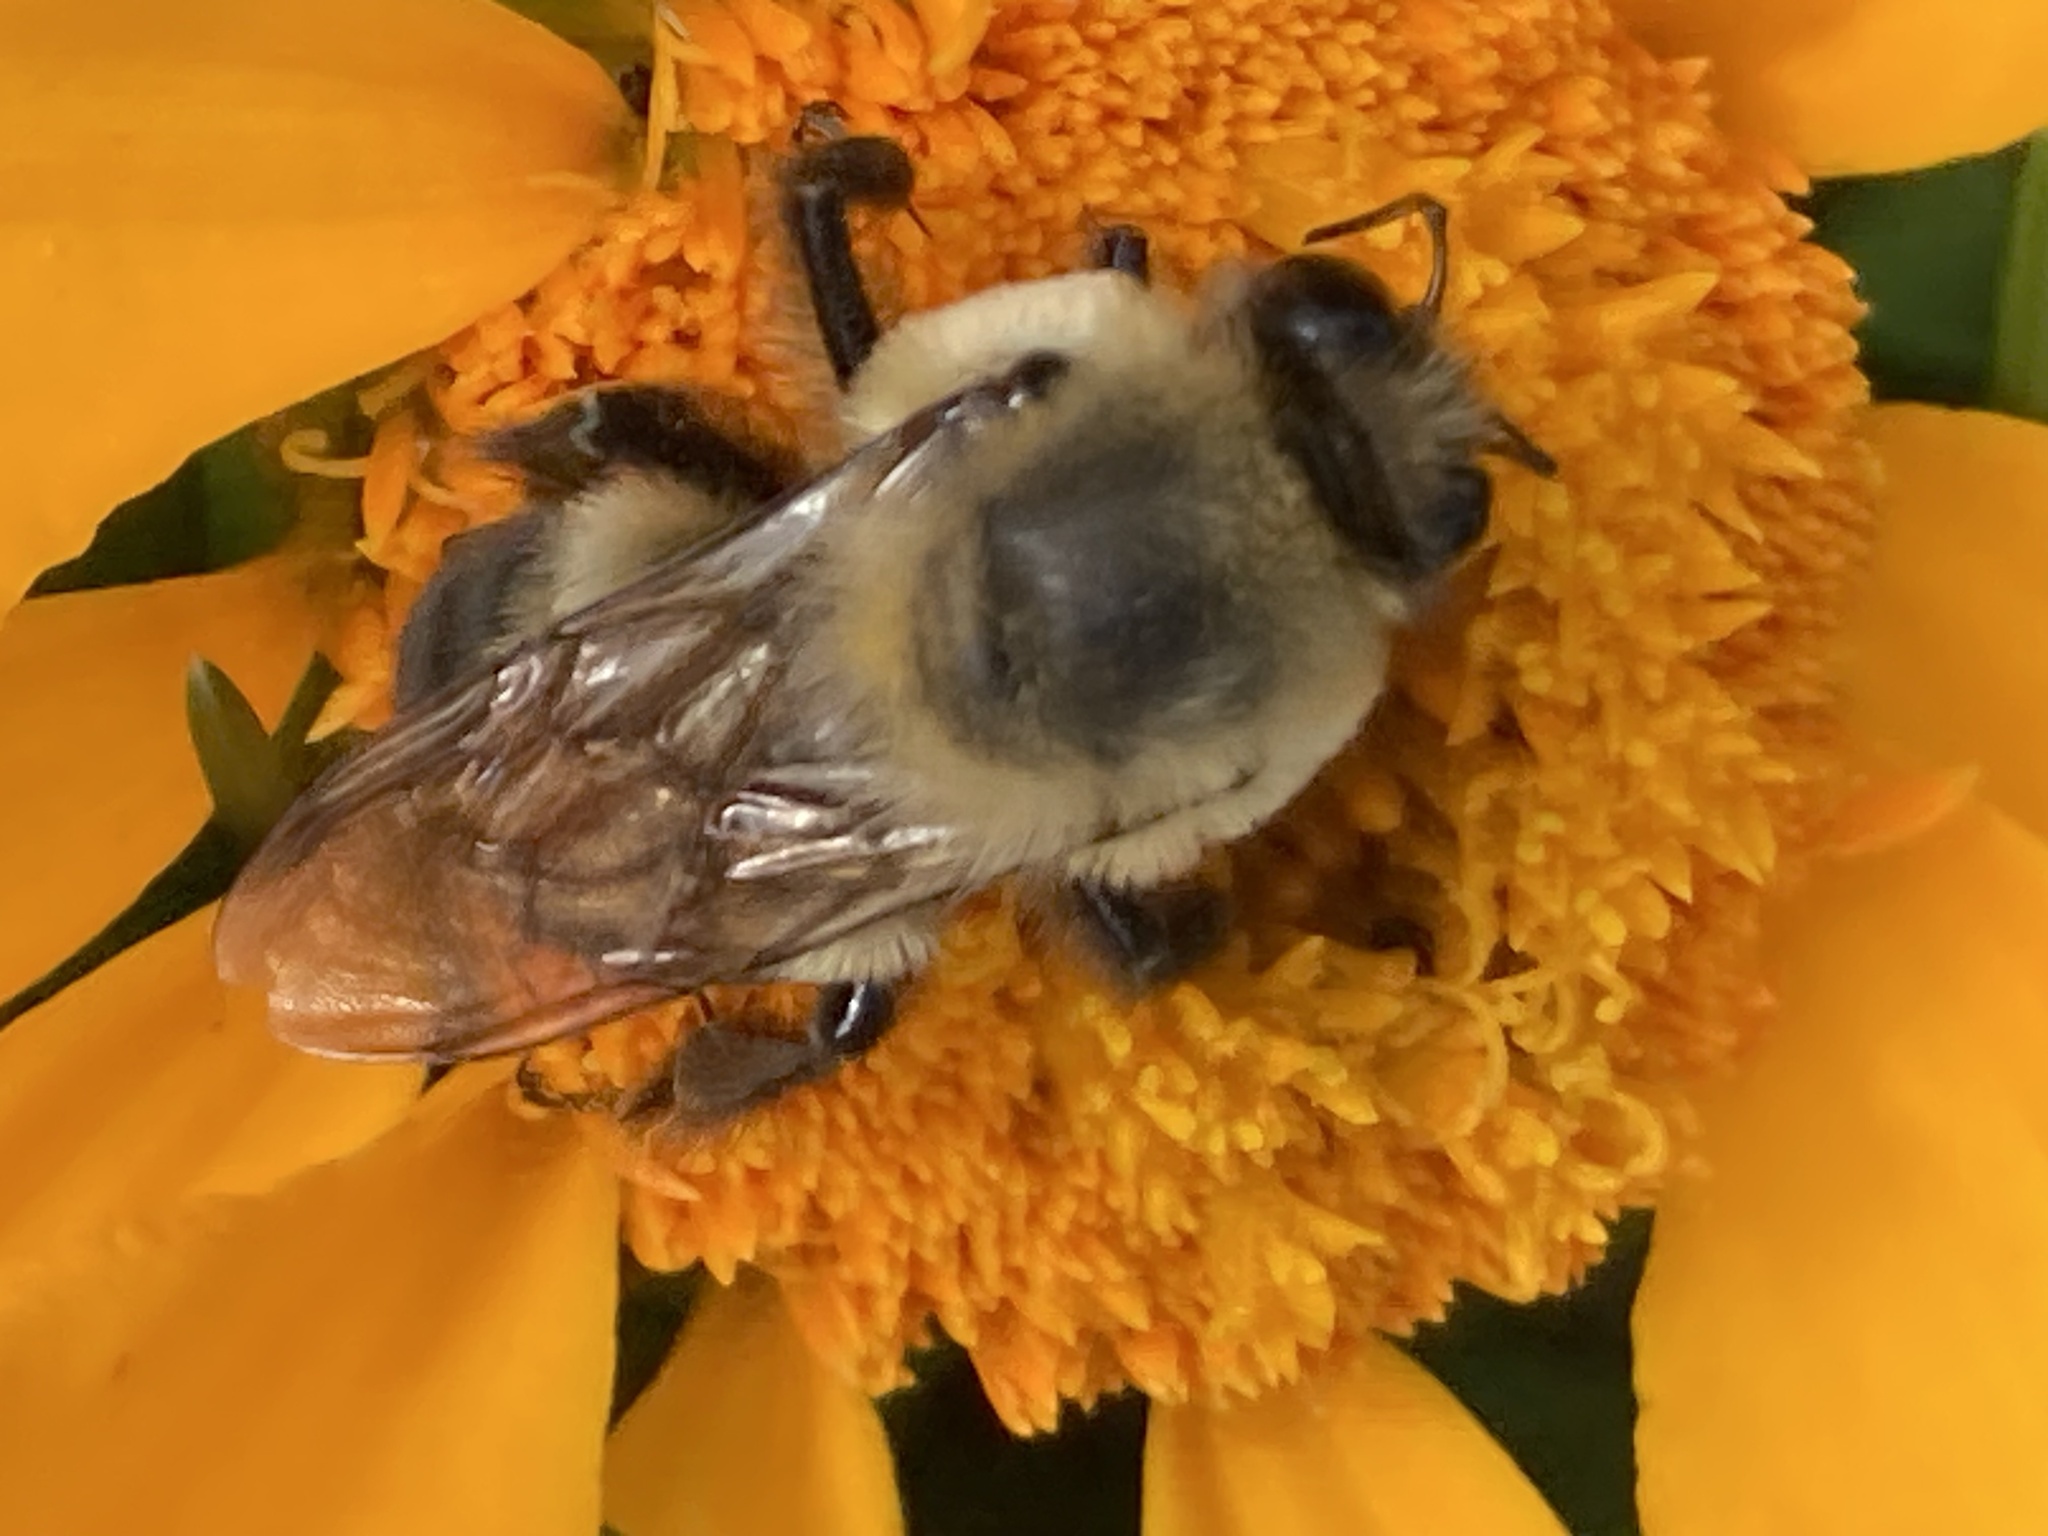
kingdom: Animalia
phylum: Arthropoda
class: Insecta
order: Hymenoptera
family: Apidae
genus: Bombus
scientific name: Bombus griseocollis
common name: Brown-belted bumble bee
